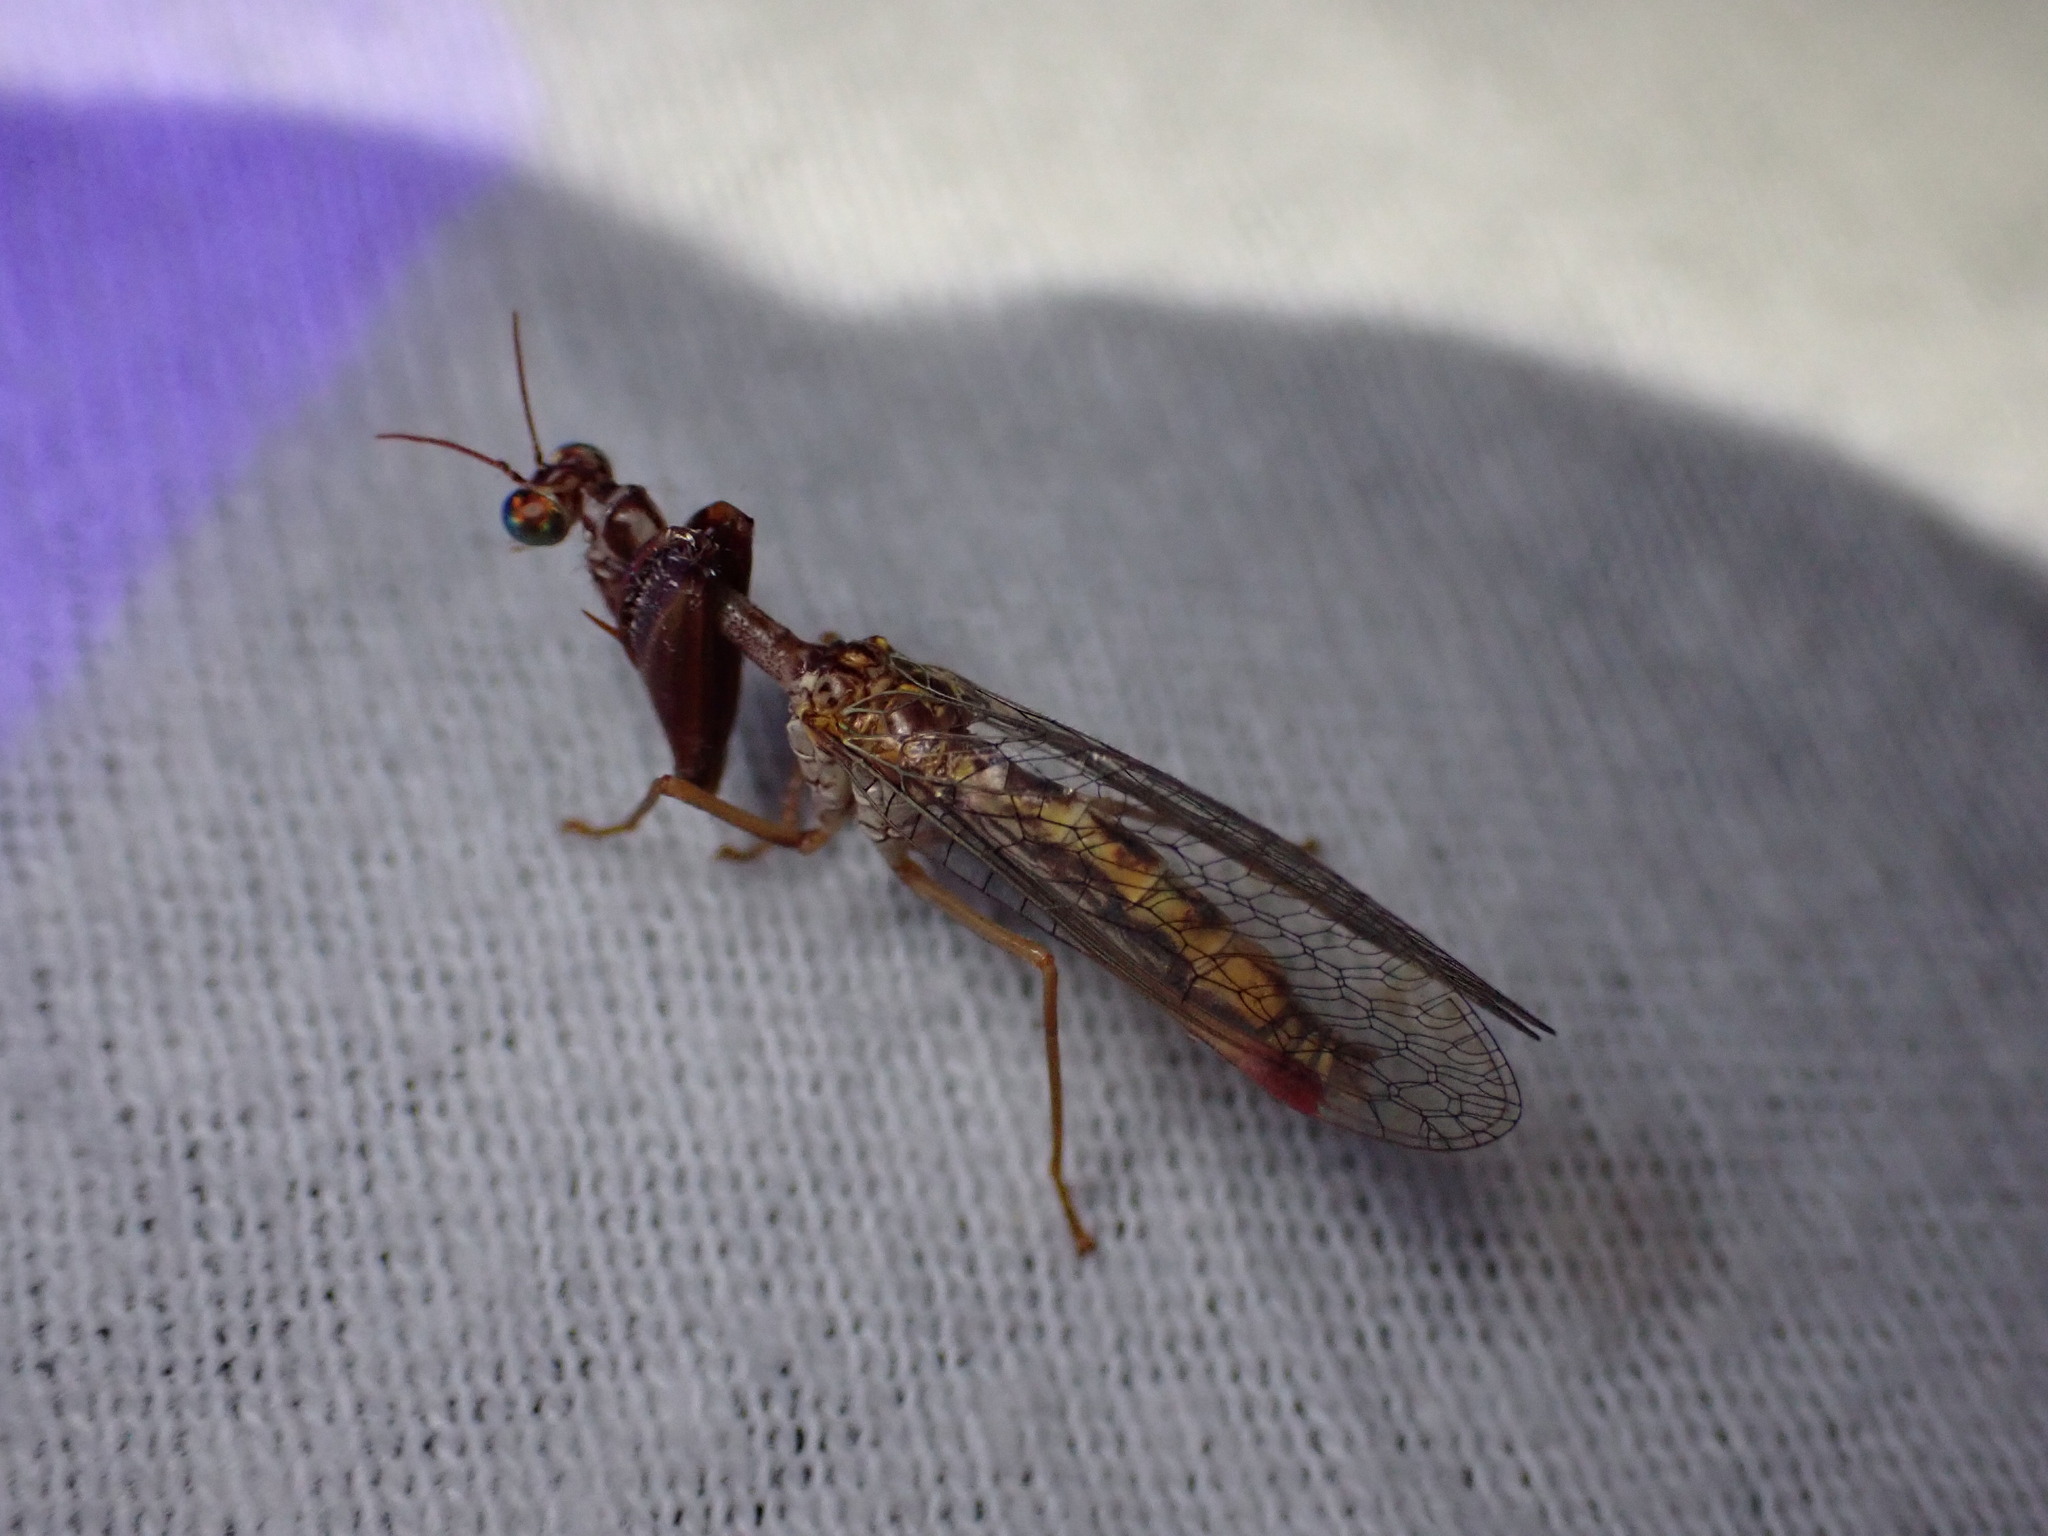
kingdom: Animalia
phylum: Arthropoda
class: Insecta
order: Neuroptera
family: Mantispidae
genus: Mantispa
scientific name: Mantispa styriaca
